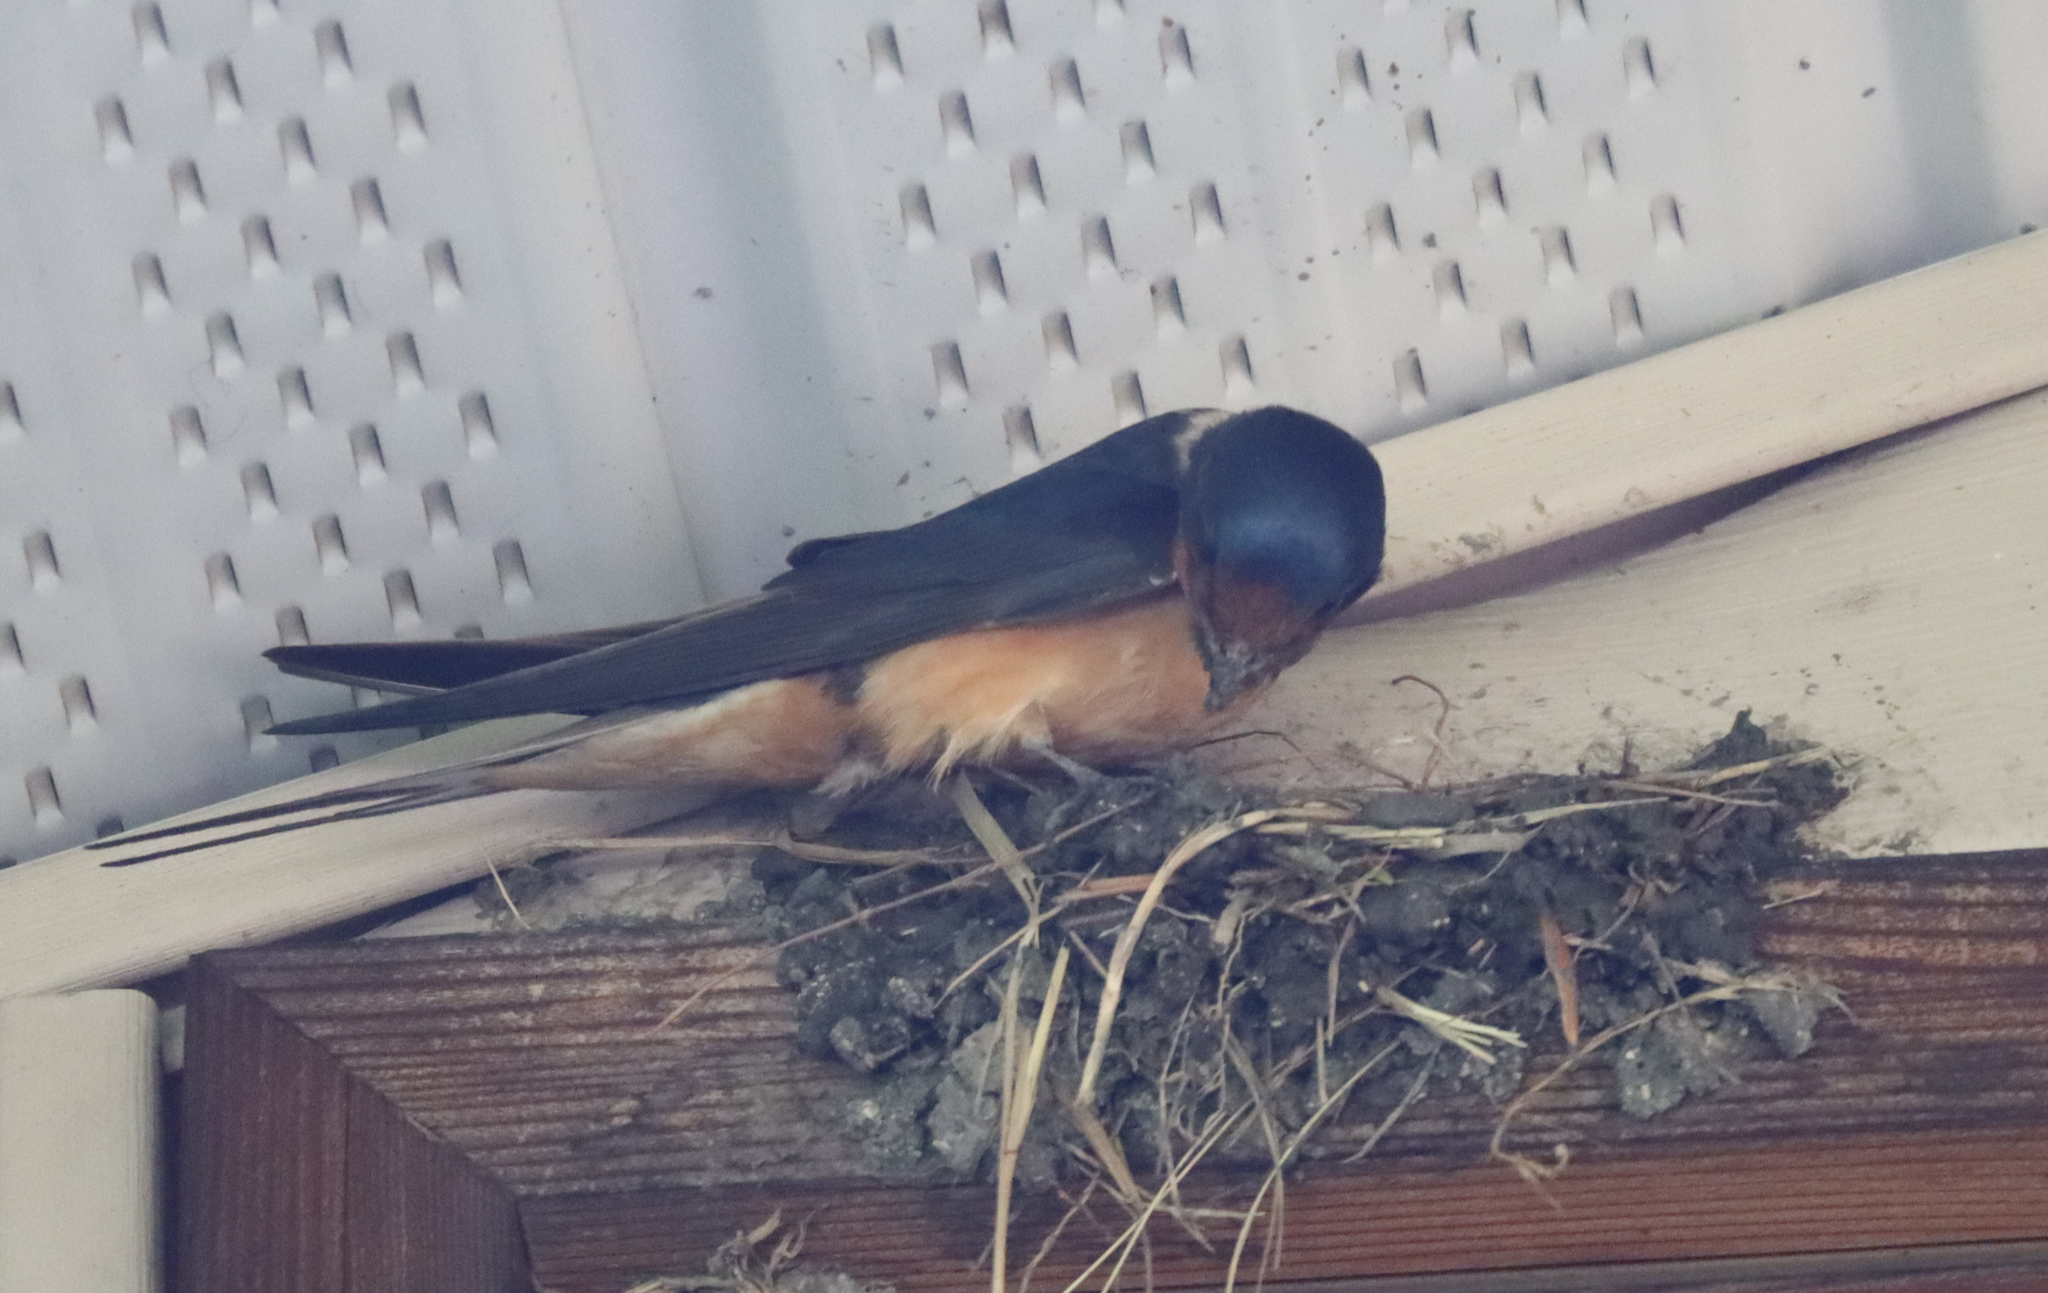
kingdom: Animalia
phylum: Chordata
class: Aves
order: Passeriformes
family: Hirundinidae
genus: Hirundo
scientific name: Hirundo rustica
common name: Barn swallow
